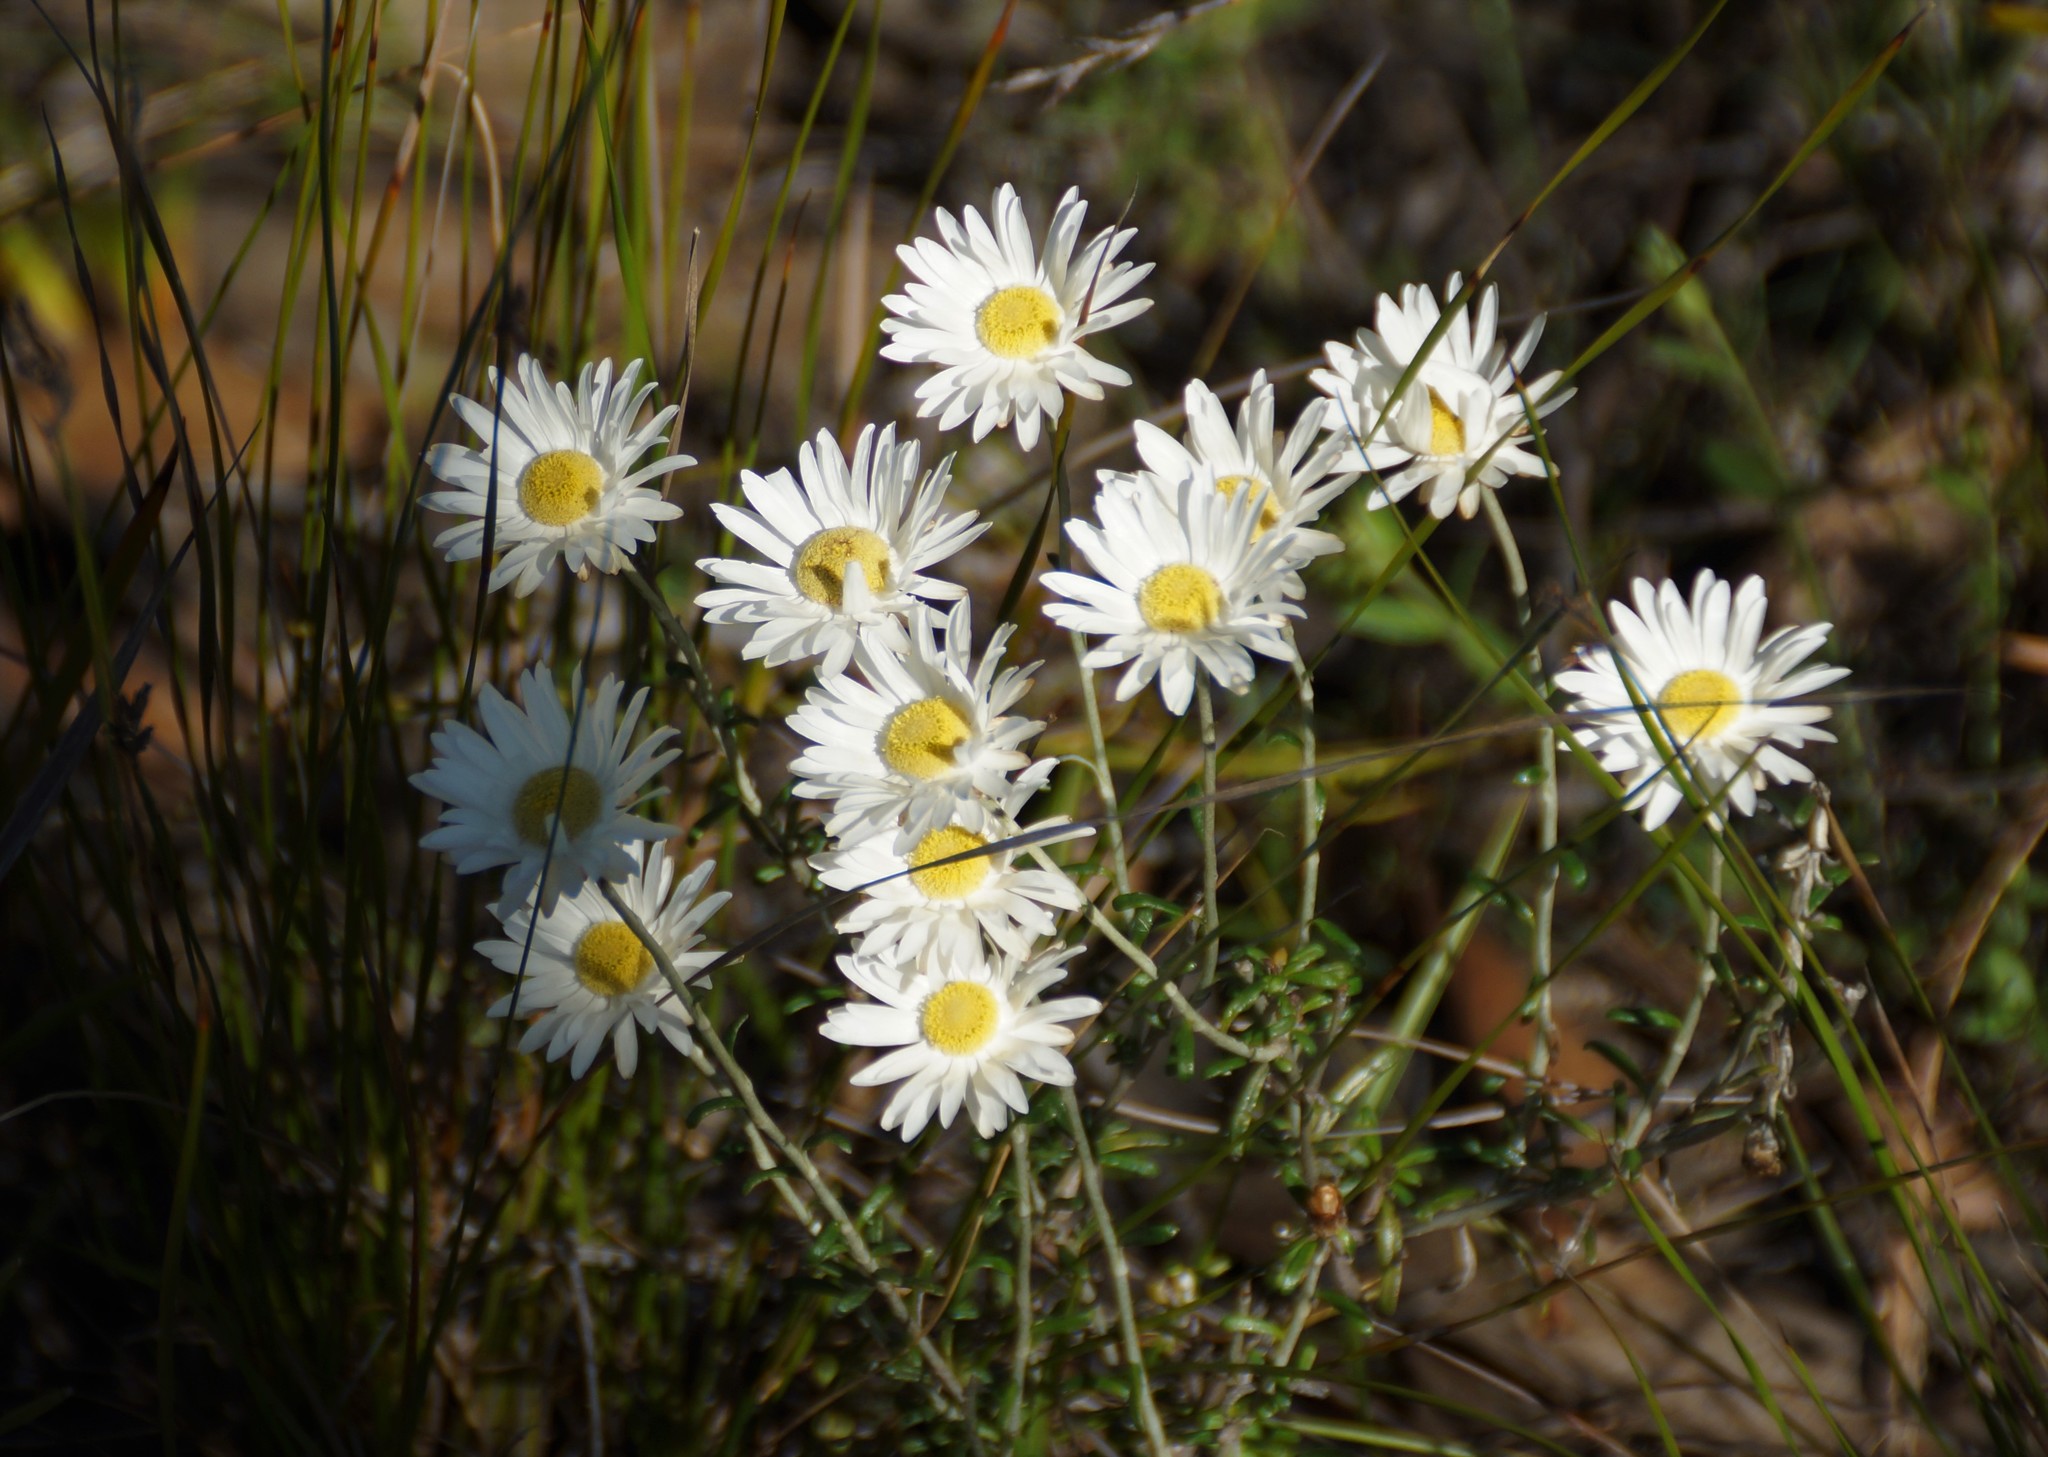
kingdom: Plantae
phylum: Tracheophyta
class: Magnoliopsida
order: Asterales
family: Asteraceae
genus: Argentipallium
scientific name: Argentipallium obtusifolium
